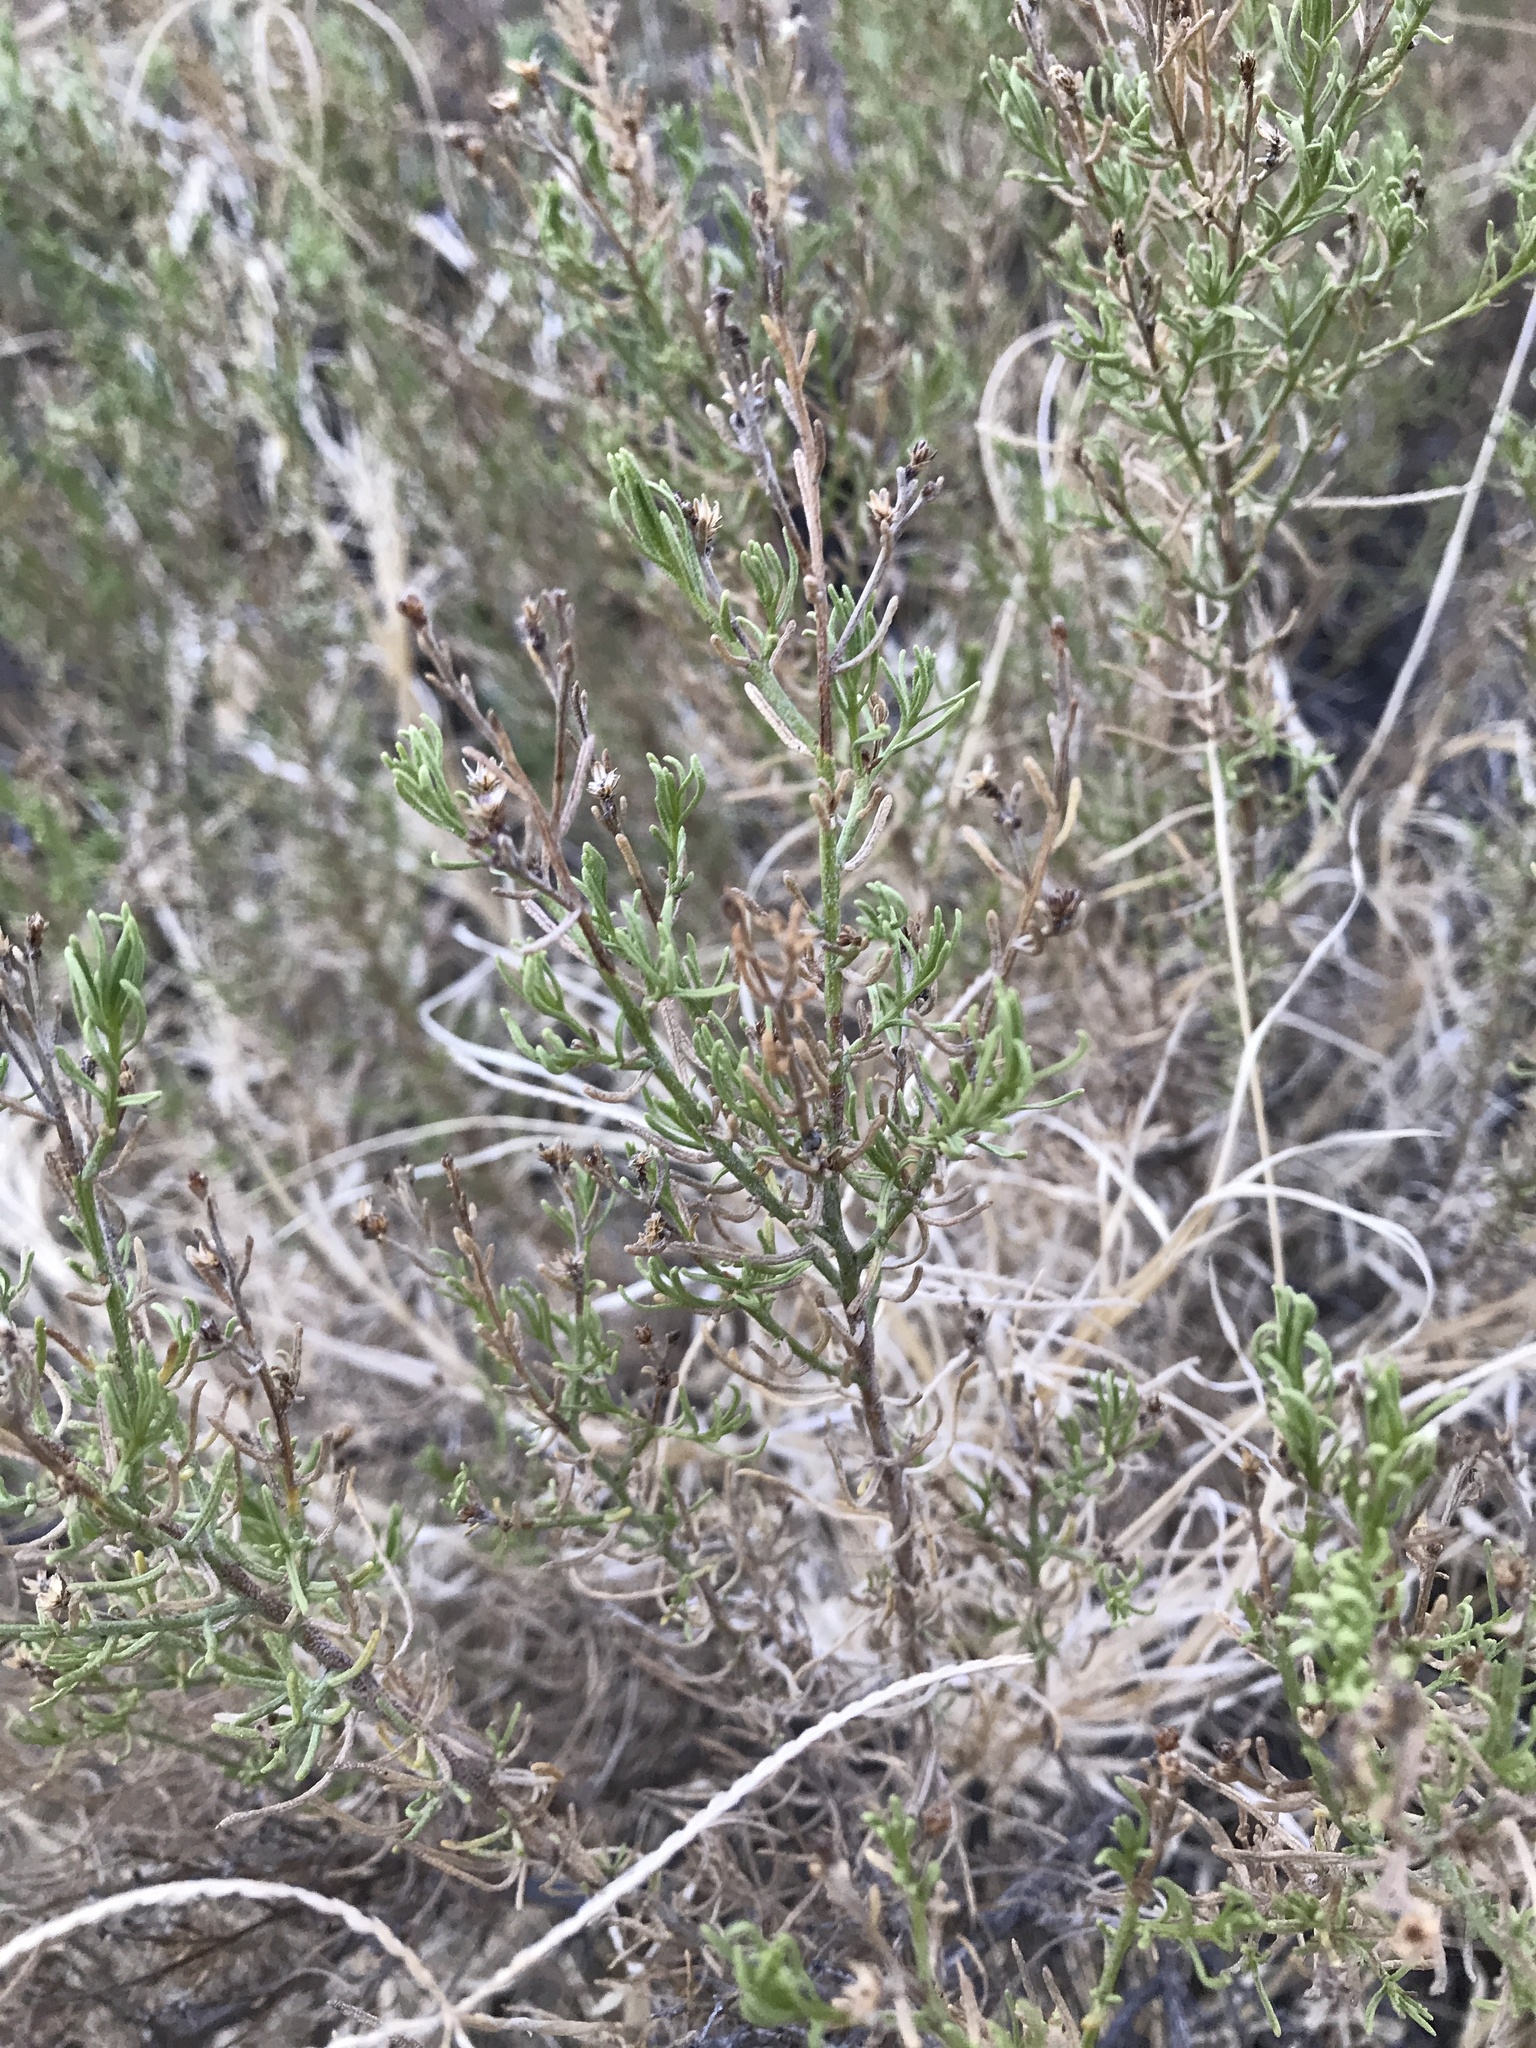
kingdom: Plantae
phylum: Tracheophyta
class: Magnoliopsida
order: Asterales
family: Asteraceae
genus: Ericameria
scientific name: Ericameria laricifolia
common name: Turpentine-bush
